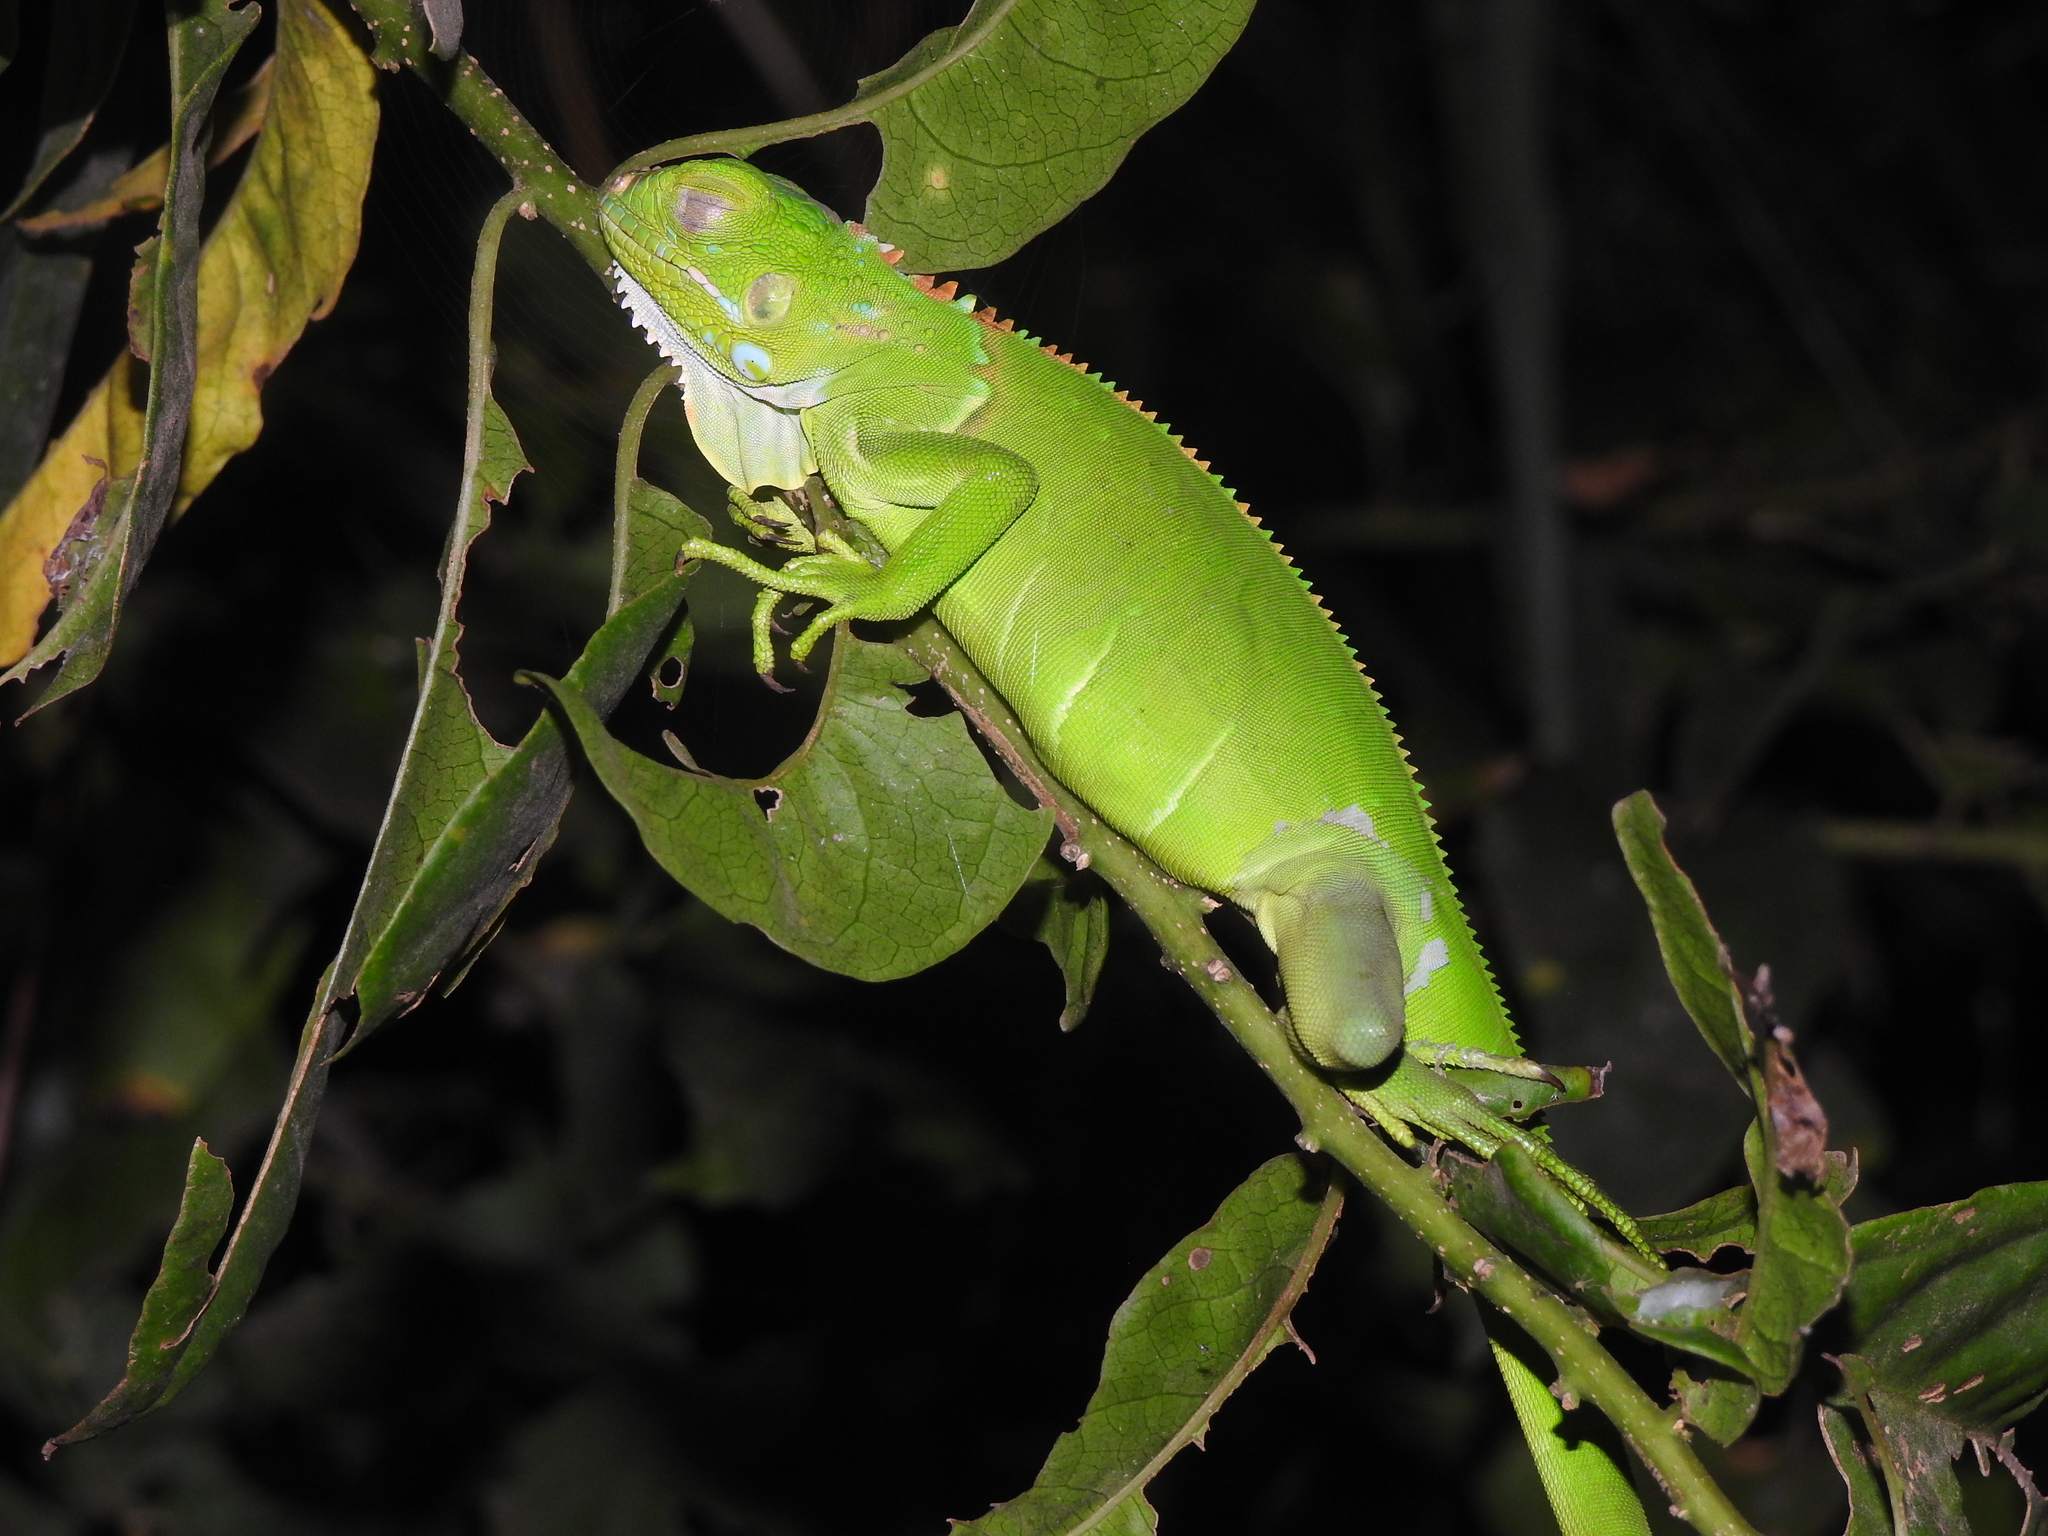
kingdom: Animalia
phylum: Chordata
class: Squamata
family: Iguanidae
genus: Iguana
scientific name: Iguana iguana
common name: Green iguana
